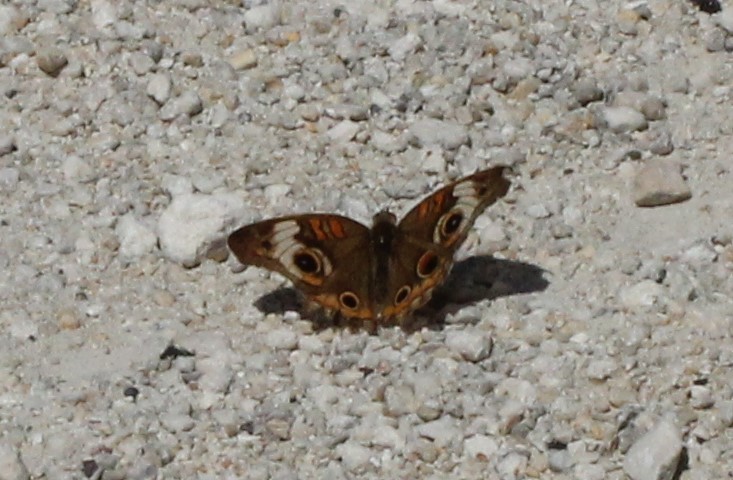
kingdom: Animalia
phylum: Arthropoda
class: Insecta
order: Lepidoptera
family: Nymphalidae
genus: Junonia
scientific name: Junonia coenia
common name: Common buckeye
